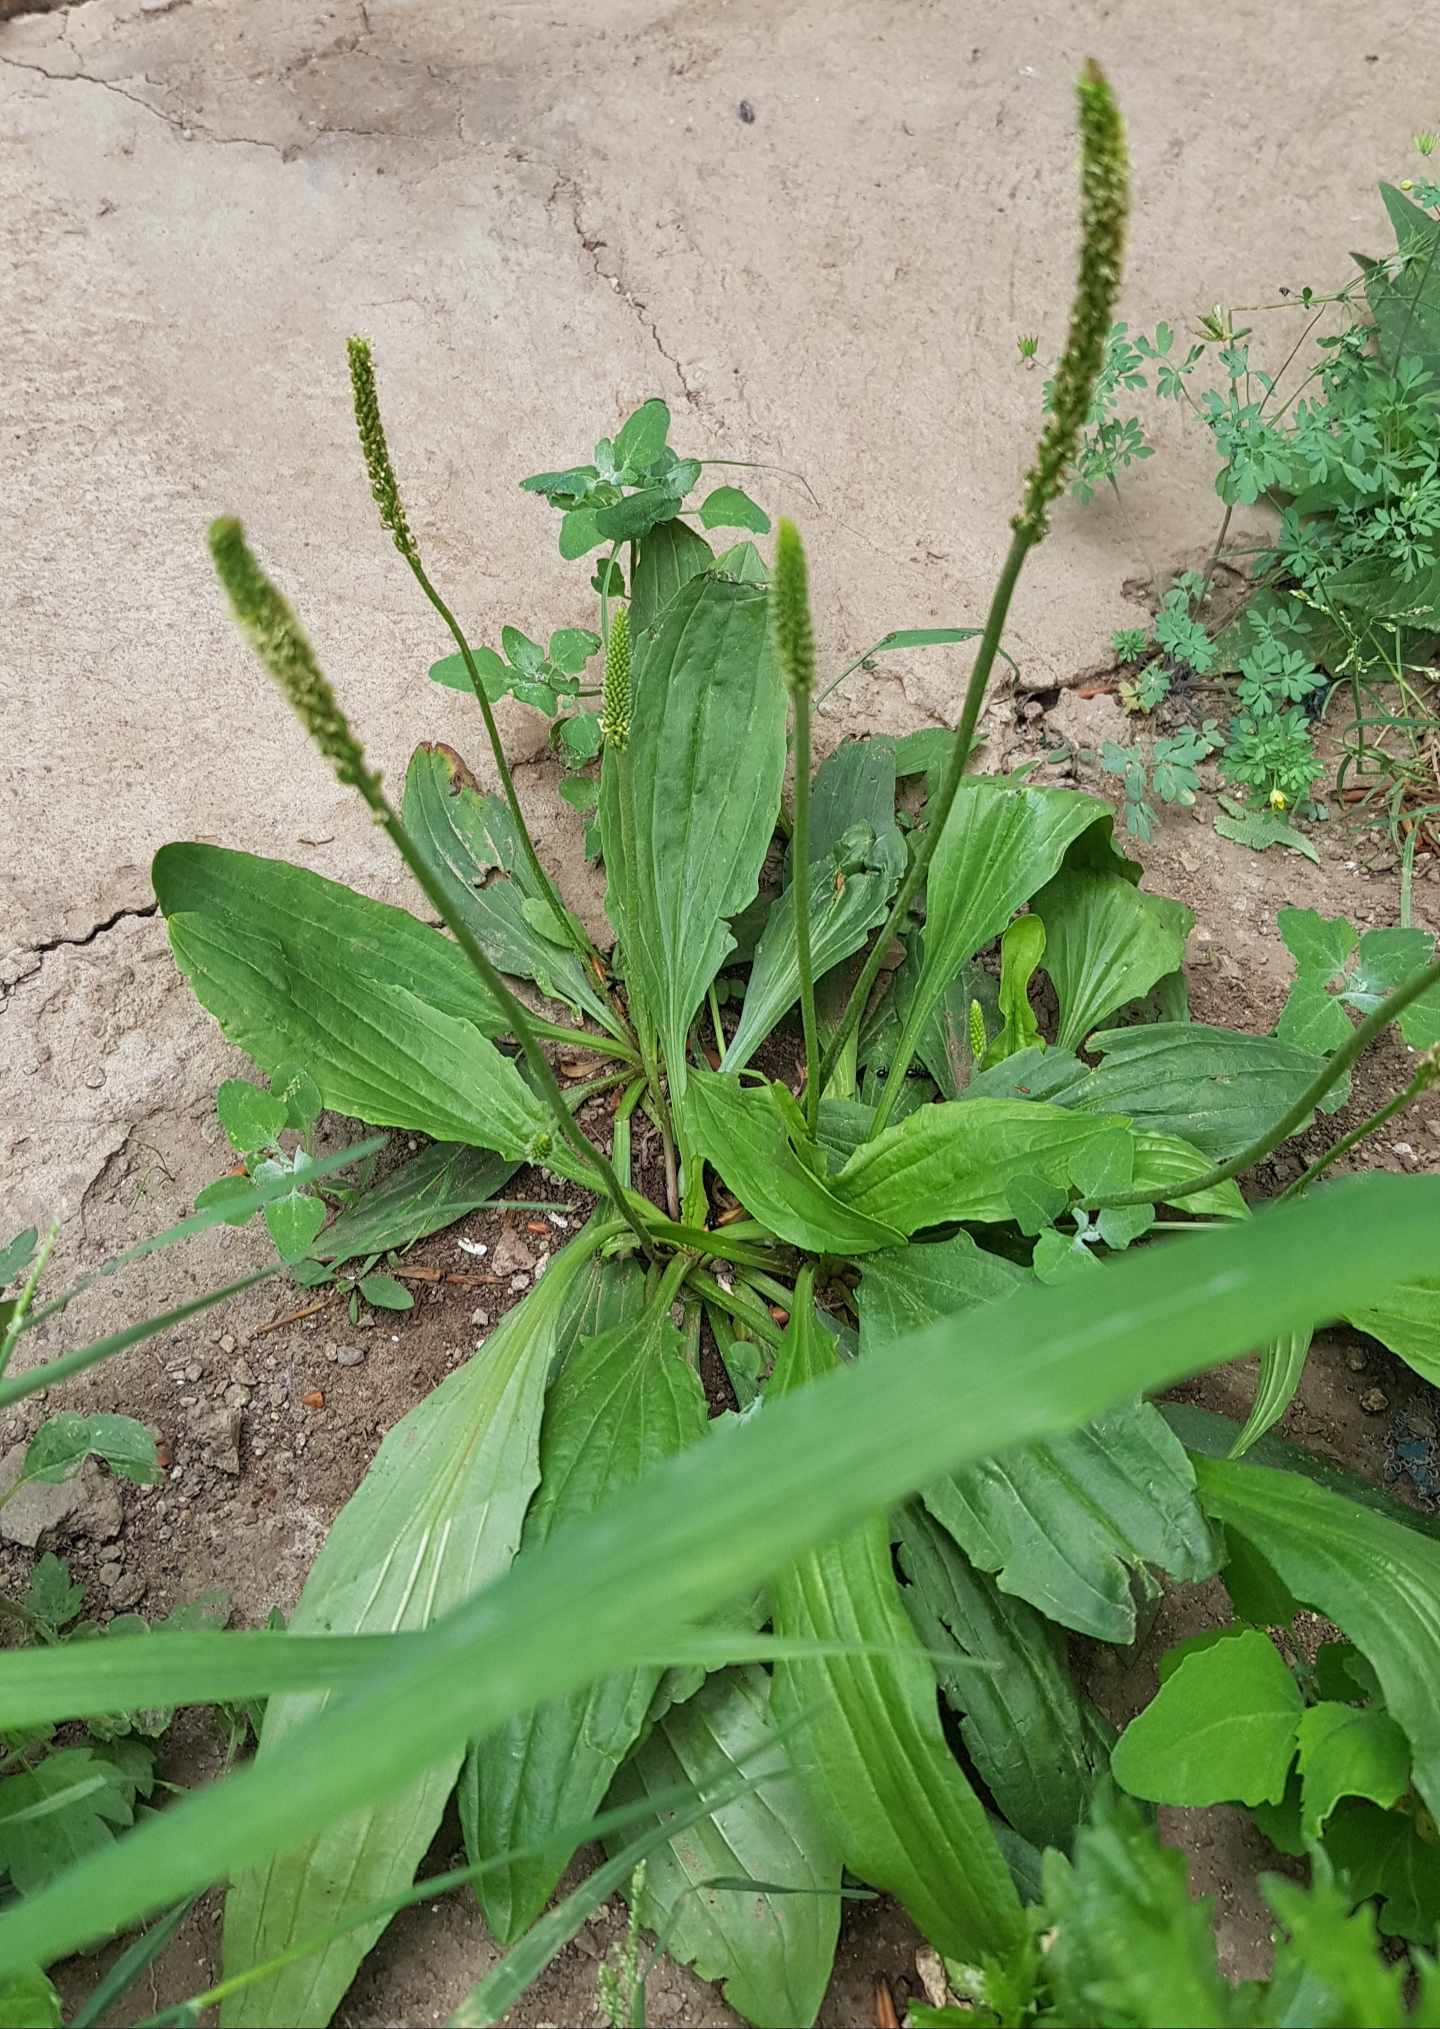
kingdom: Plantae
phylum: Tracheophyta
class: Magnoliopsida
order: Lamiales
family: Plantaginaceae
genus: Plantago
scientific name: Plantago depressa
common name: Depressed plantain
